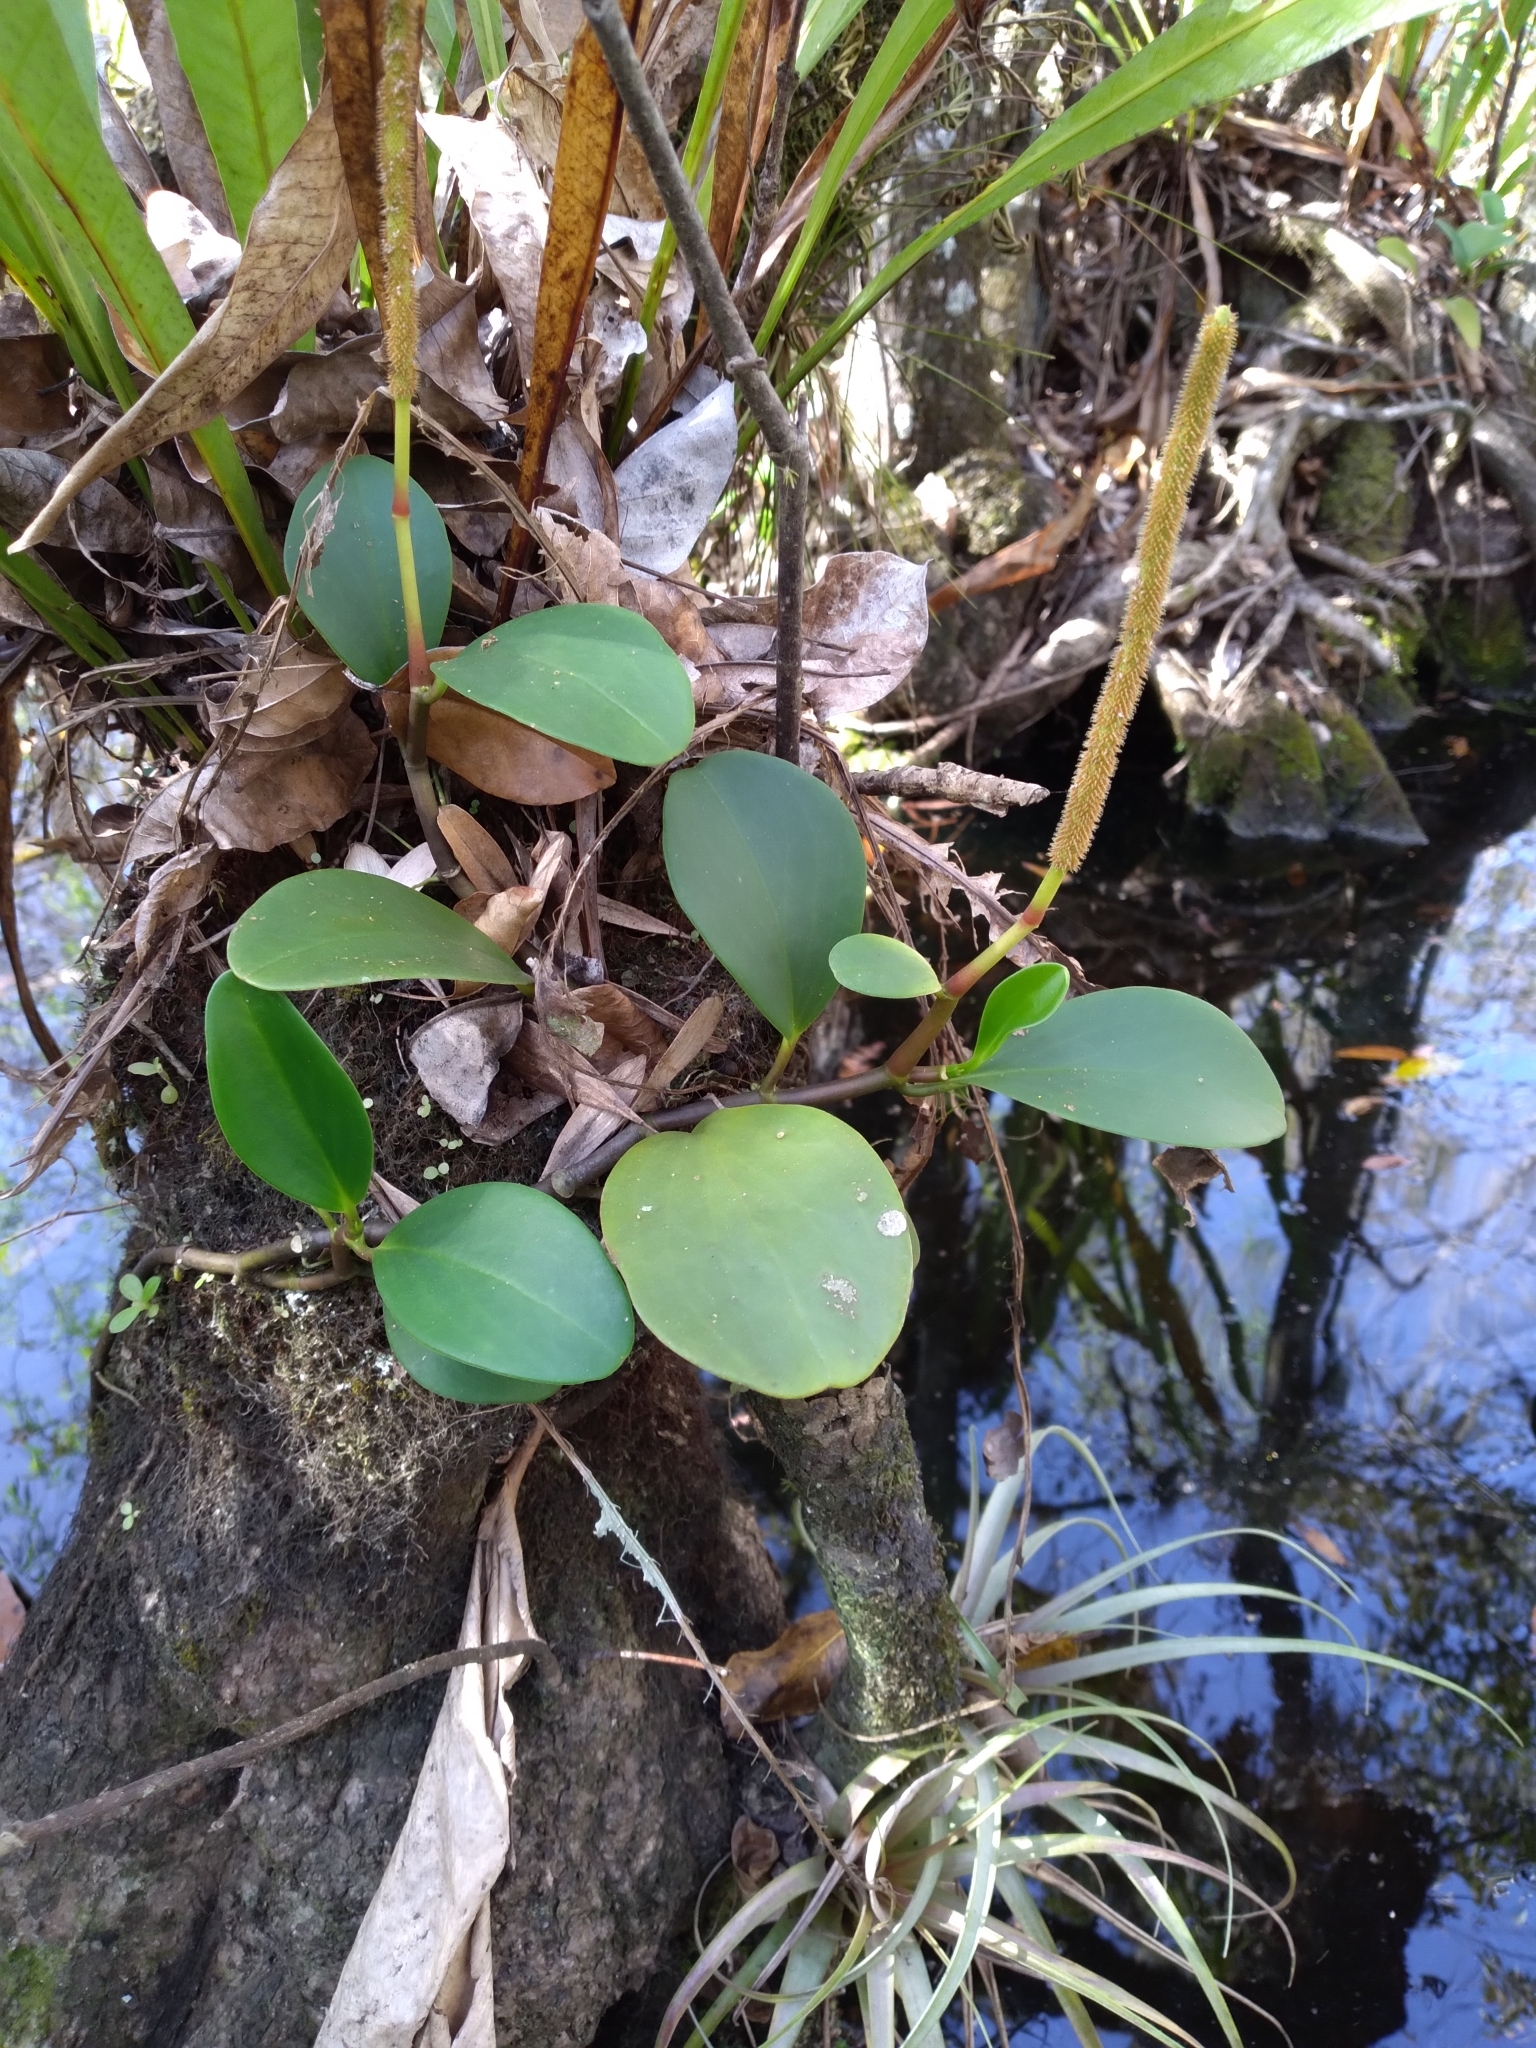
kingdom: Plantae
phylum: Tracheophyta
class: Magnoliopsida
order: Piperales
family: Piperaceae
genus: Peperomia
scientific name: Peperomia obtusifolia
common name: Baby rubberplant
